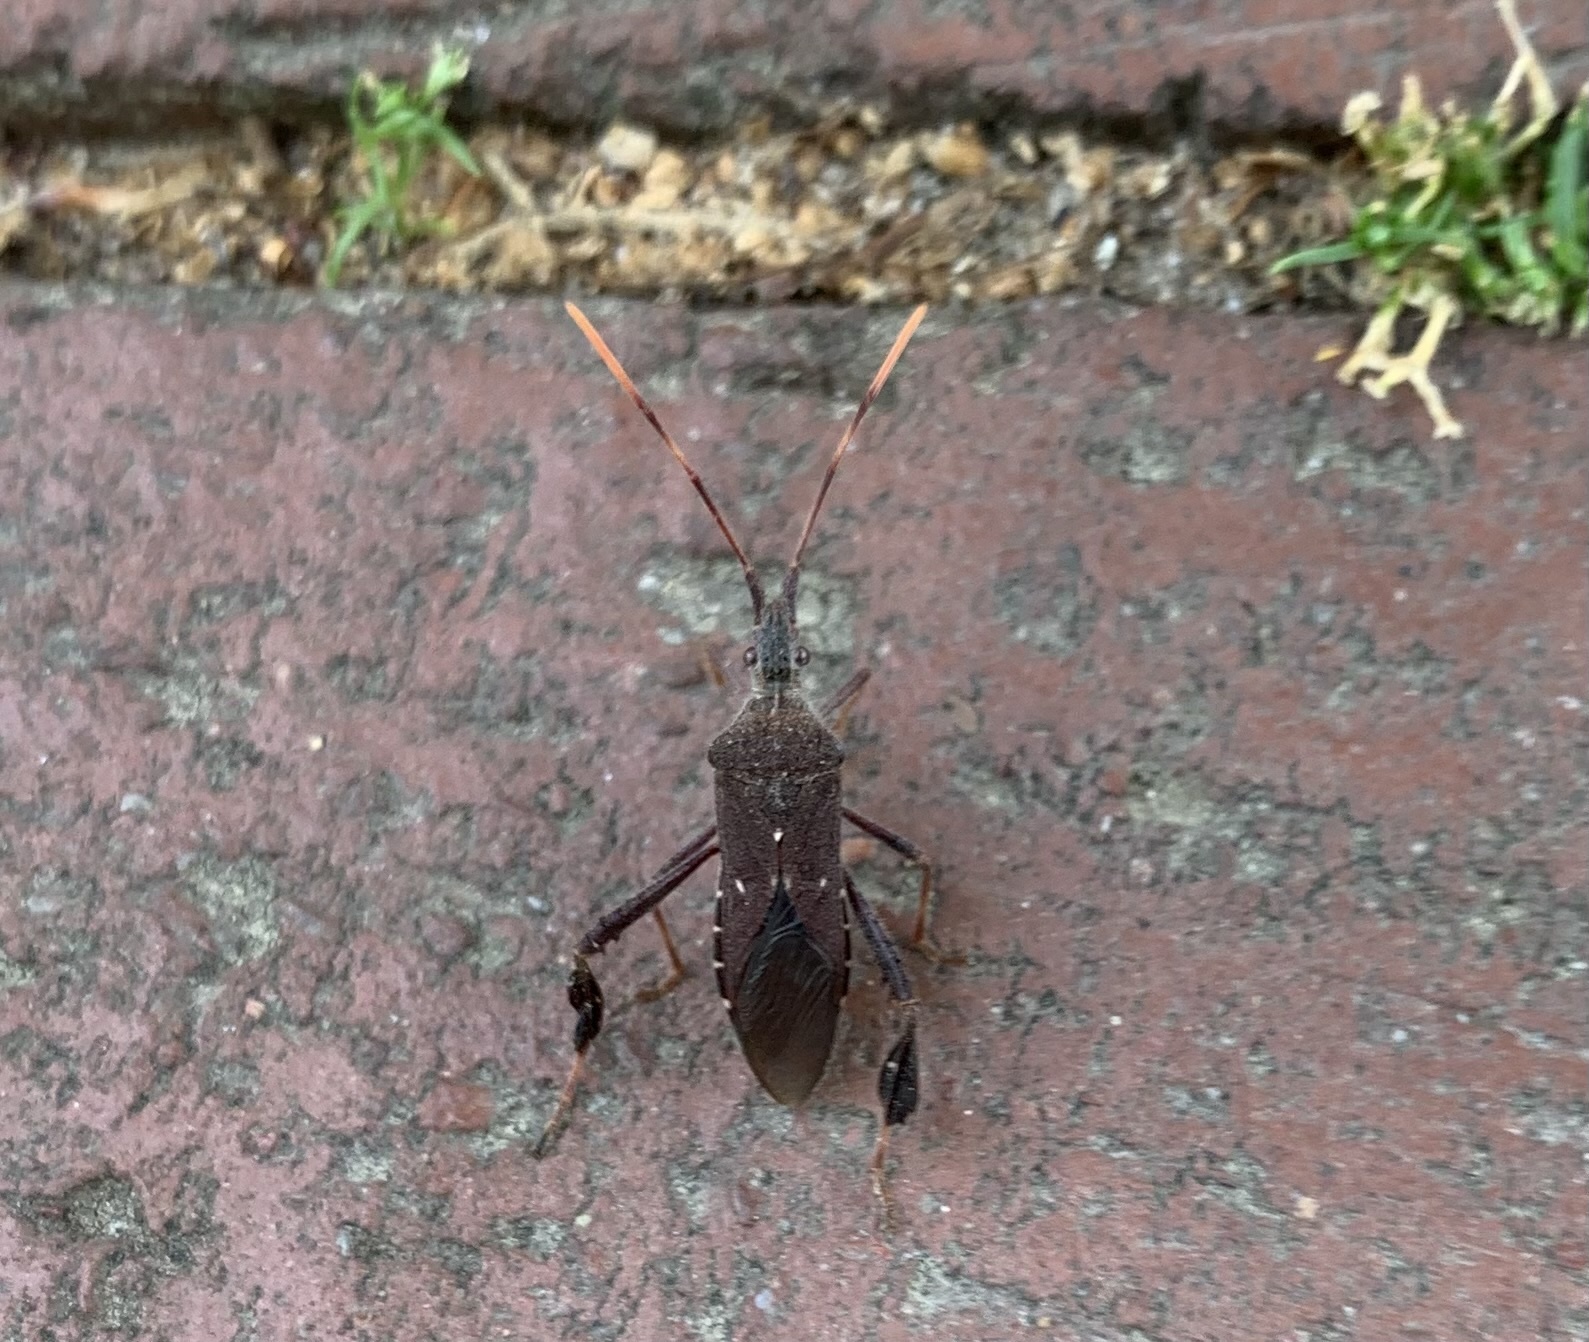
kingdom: Animalia
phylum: Arthropoda
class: Insecta
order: Hemiptera
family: Coreidae
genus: Leptoglossus
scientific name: Leptoglossus oppositus
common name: Northern leaf-footed bug
